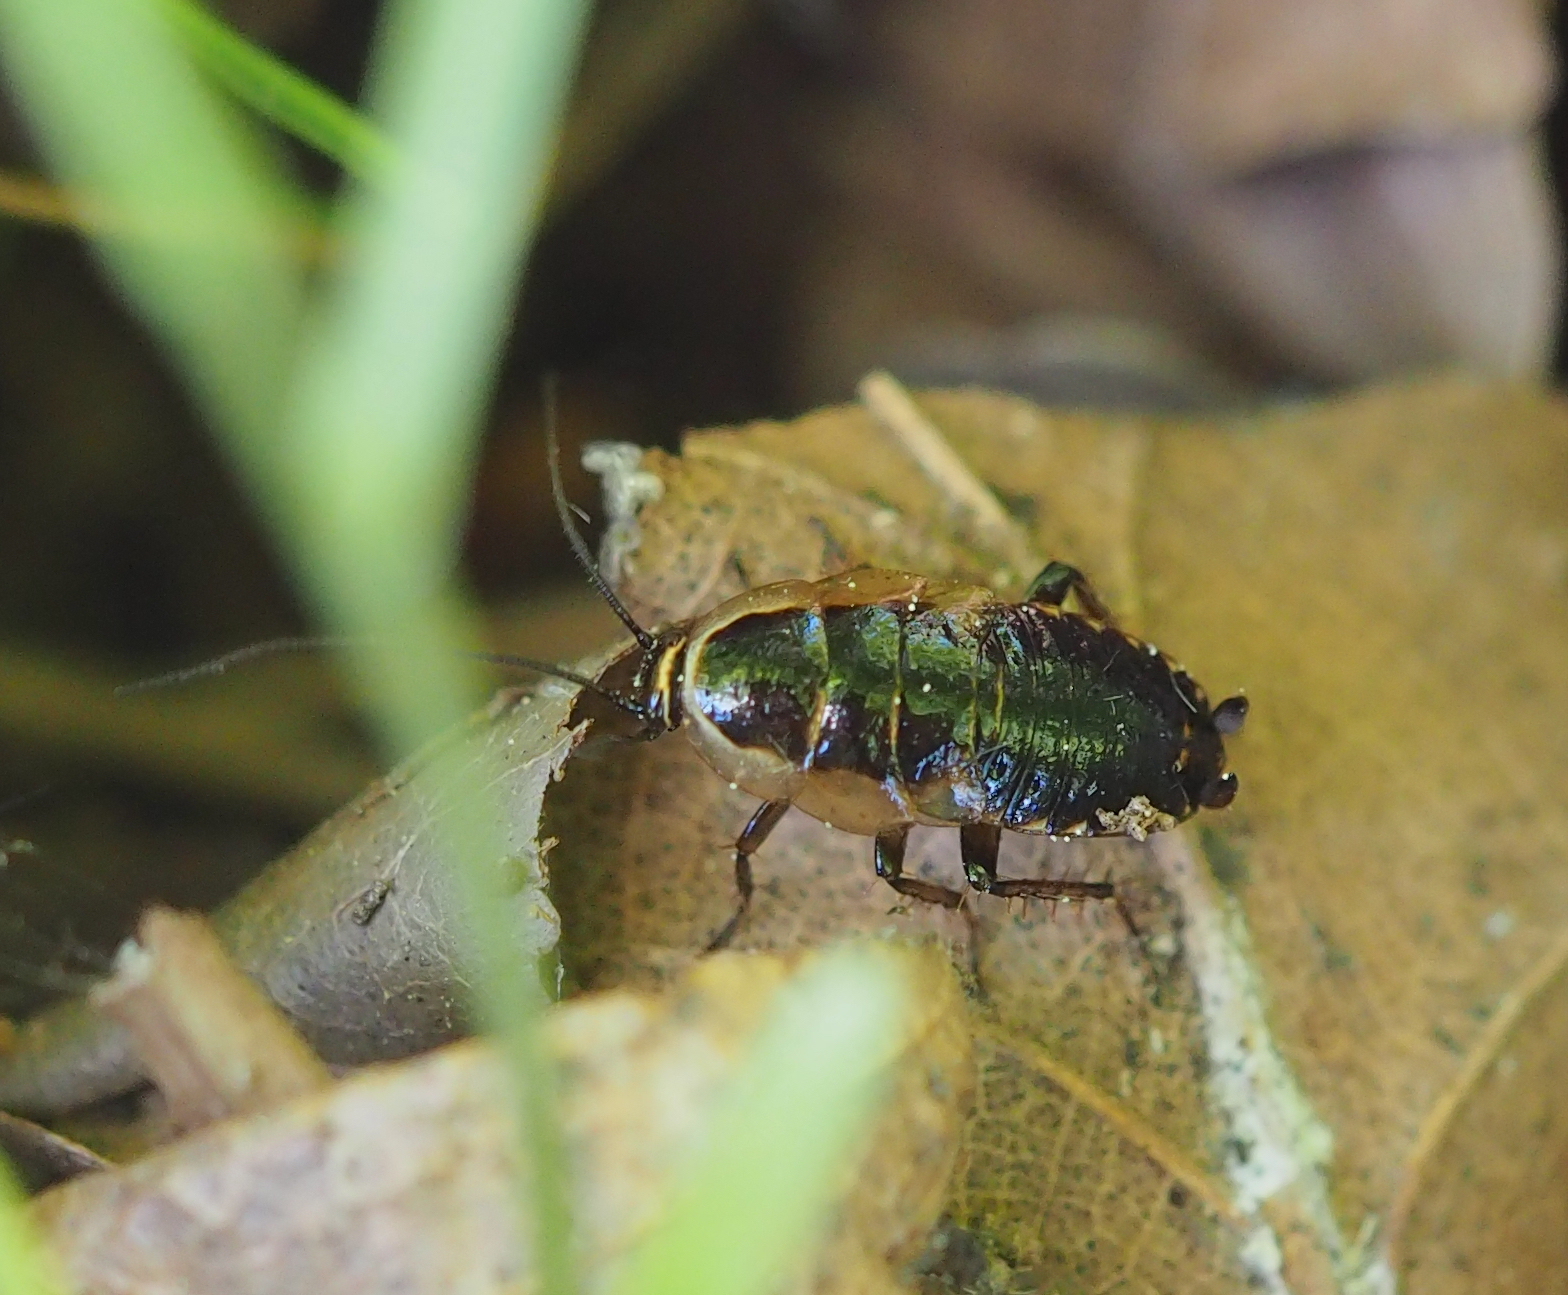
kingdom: Animalia
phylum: Arthropoda
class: Insecta
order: Blattodea
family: Ectobiidae
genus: Ectobius
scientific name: Ectobius sylvestris
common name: Forest cockroach
